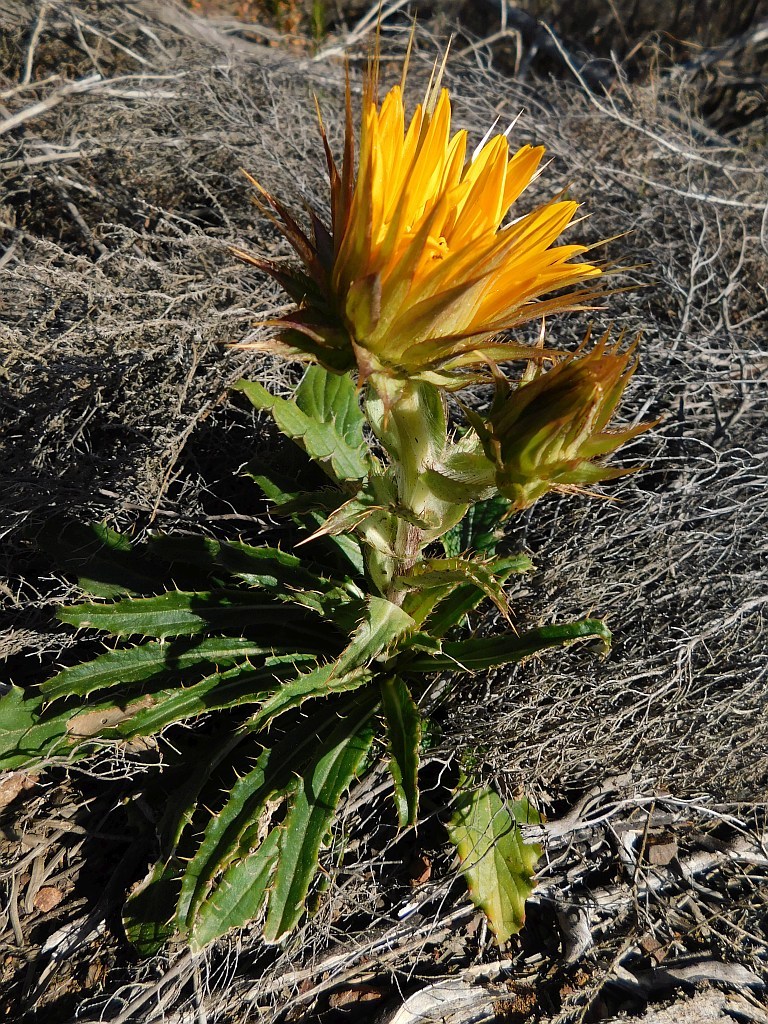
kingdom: Plantae
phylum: Tracheophyta
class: Magnoliopsida
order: Asterales
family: Asteraceae
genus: Berkheya
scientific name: Berkheya armata
